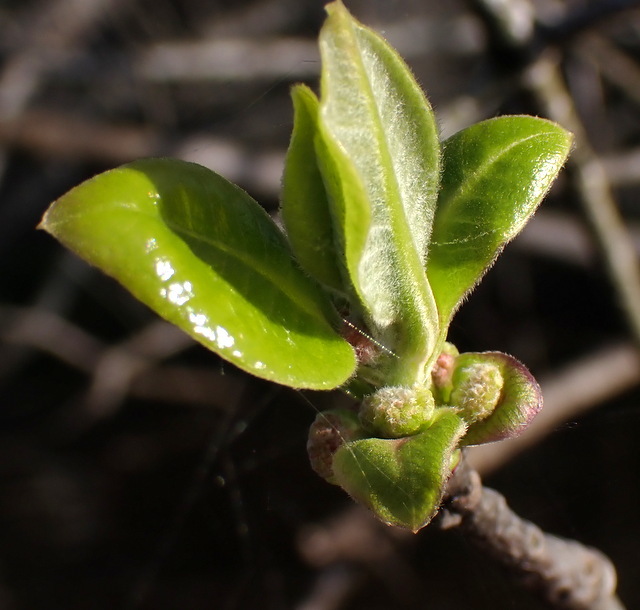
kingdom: Plantae
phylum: Tracheophyta
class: Magnoliopsida
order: Cornales
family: Nyssaceae
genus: Nyssa
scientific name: Nyssa ogeche
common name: Ogeechee tupelo
